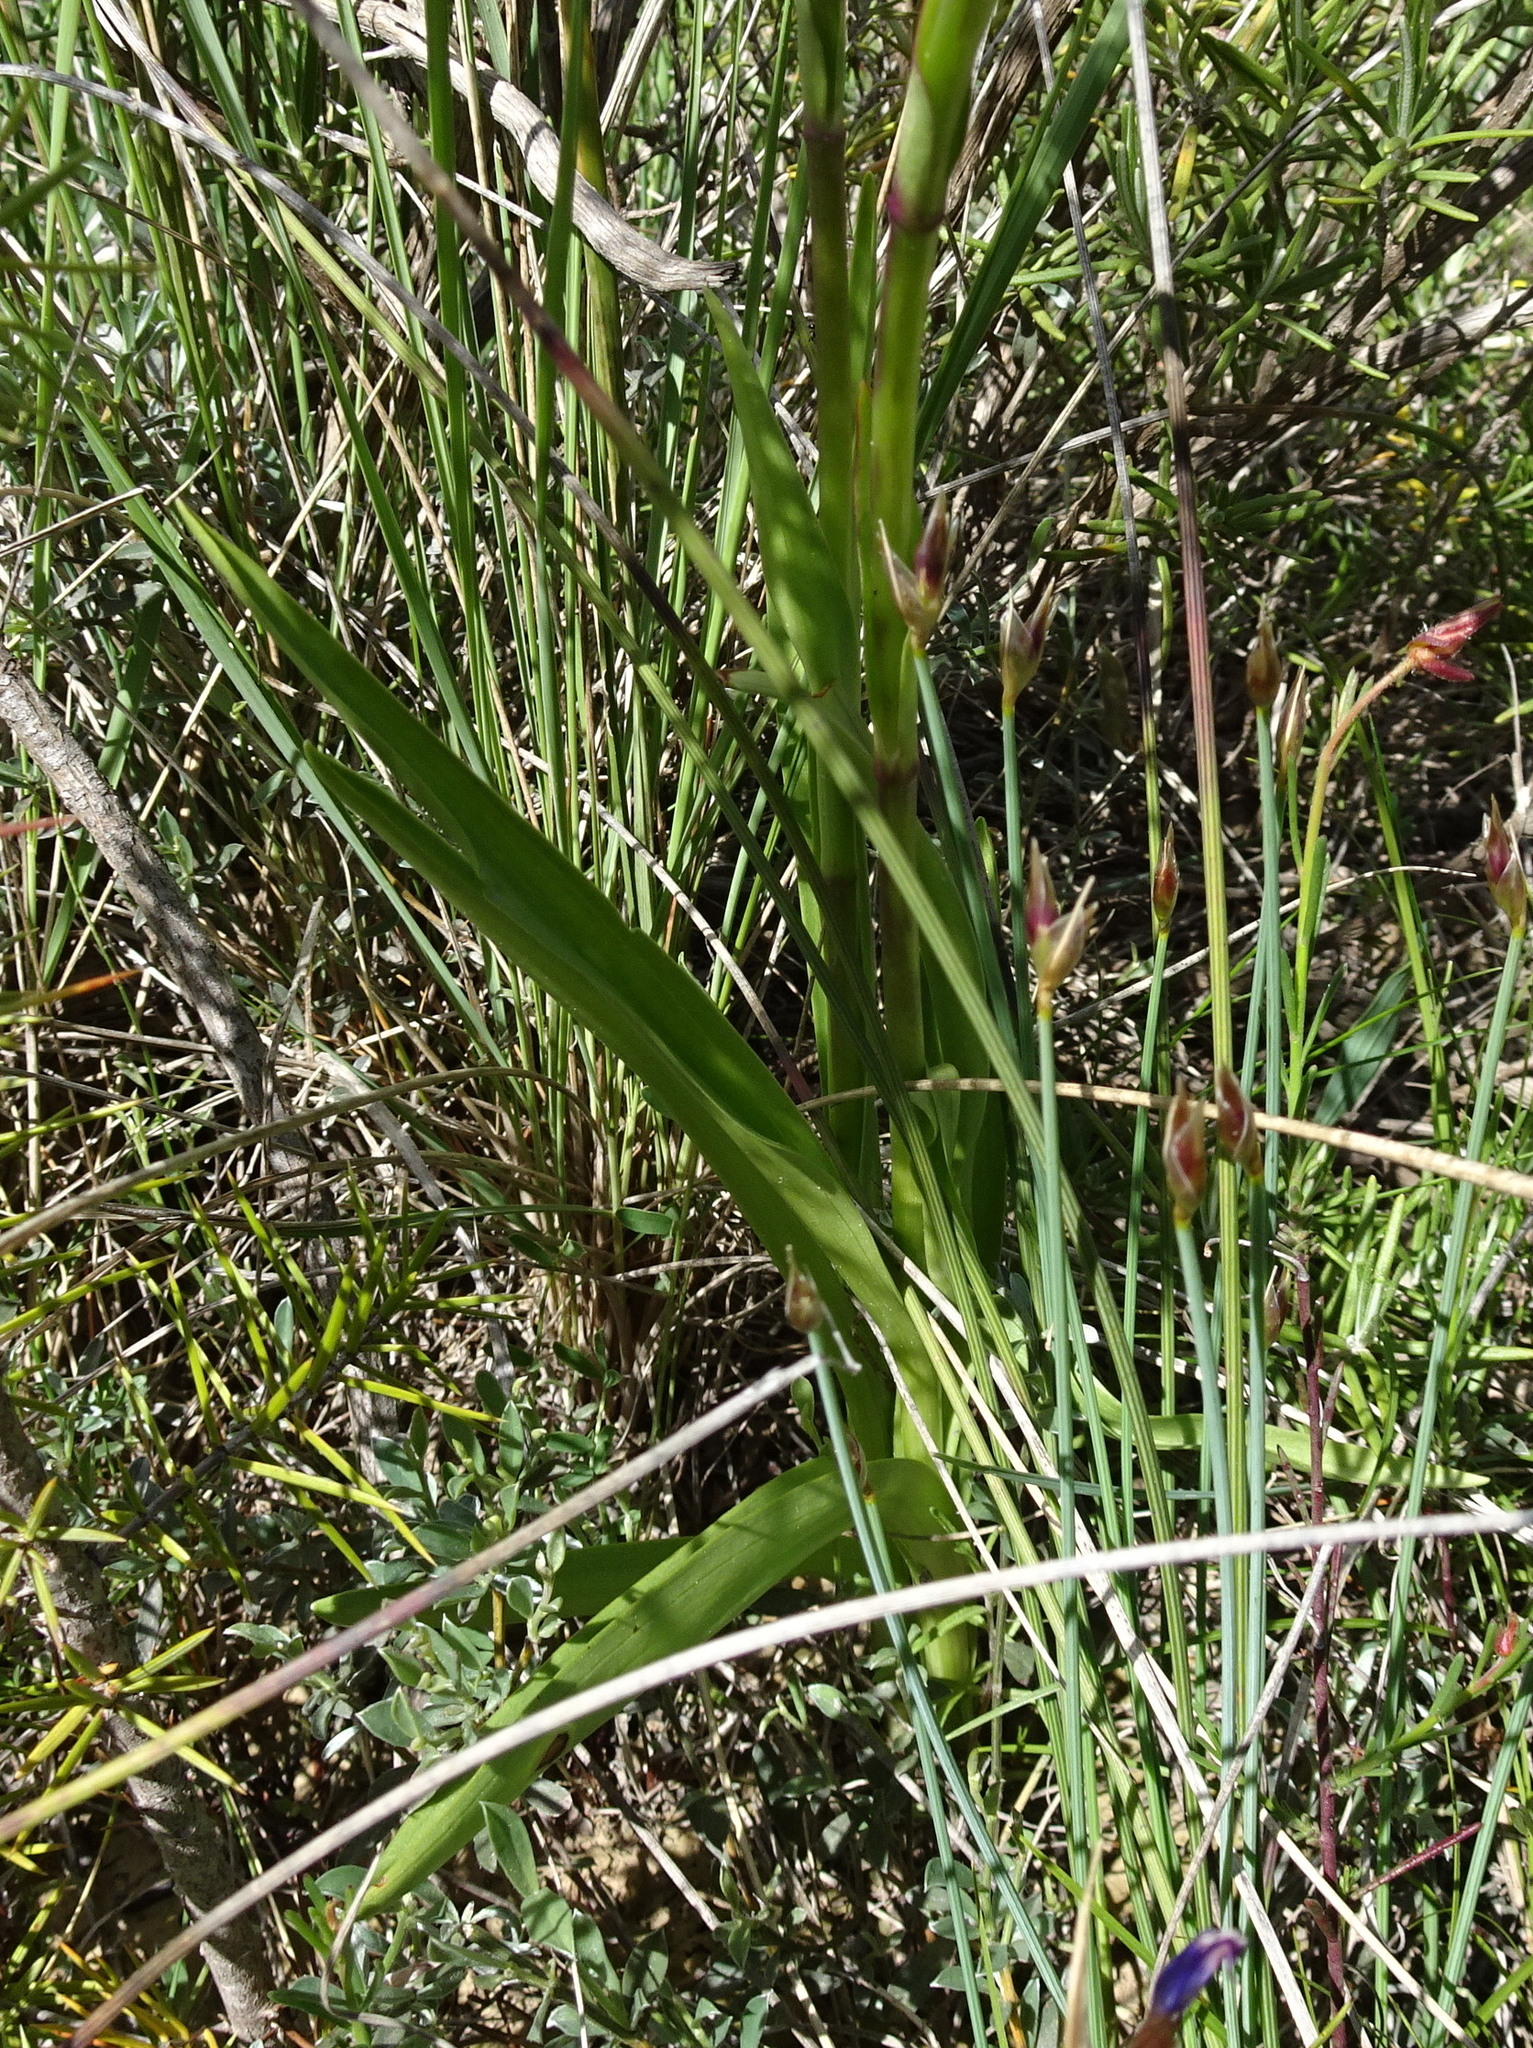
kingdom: Plantae
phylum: Tracheophyta
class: Liliopsida
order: Asparagales
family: Orchidaceae
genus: Gymnadenia
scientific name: Gymnadenia conopsea
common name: Fragrant orchid
